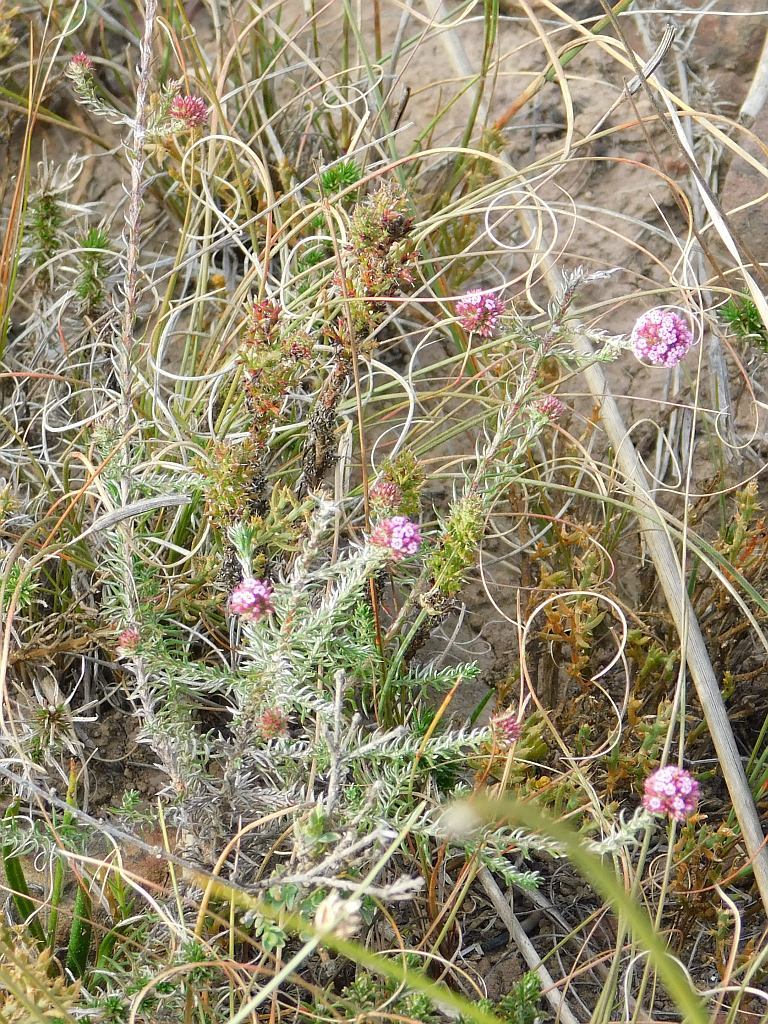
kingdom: Plantae
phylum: Tracheophyta
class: Magnoliopsida
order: Asterales
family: Asteraceae
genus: Stoebe
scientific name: Stoebe capitata
